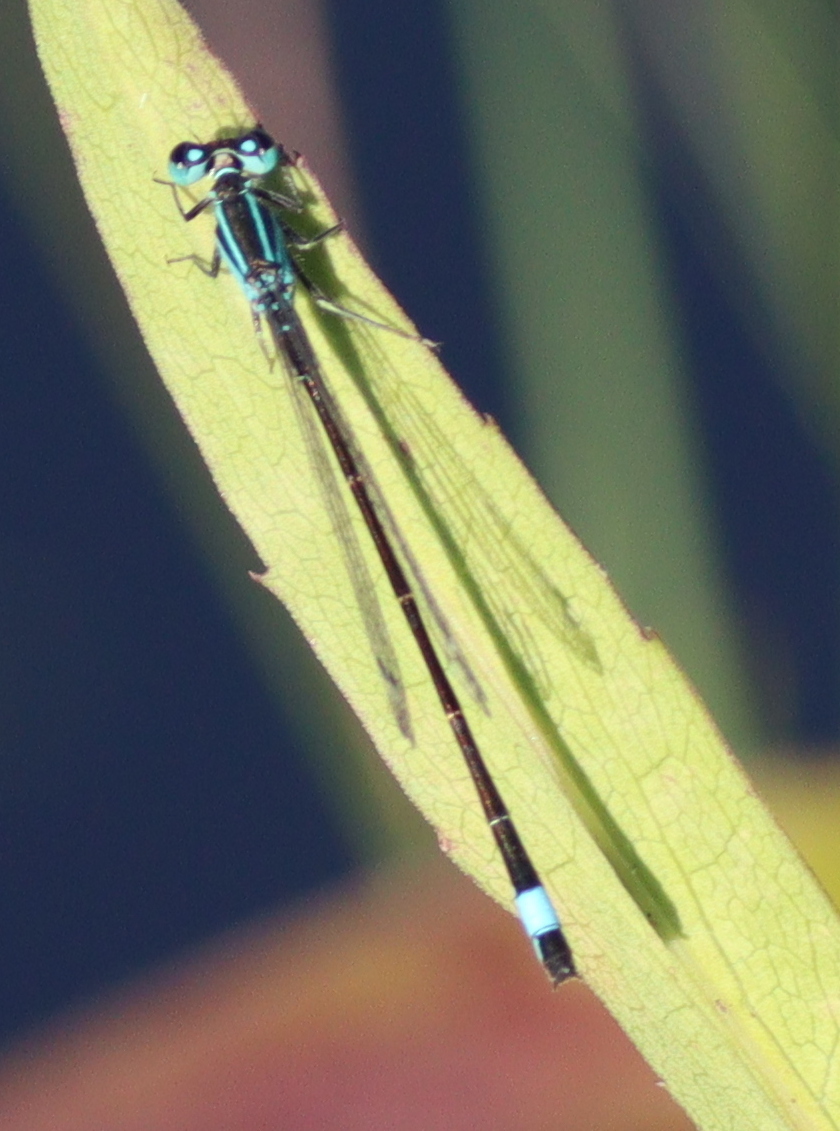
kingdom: Animalia
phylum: Arthropoda
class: Insecta
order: Odonata
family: Coenagrionidae
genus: Ischnura
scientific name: Ischnura elegans
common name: Blue-tailed damselfly
